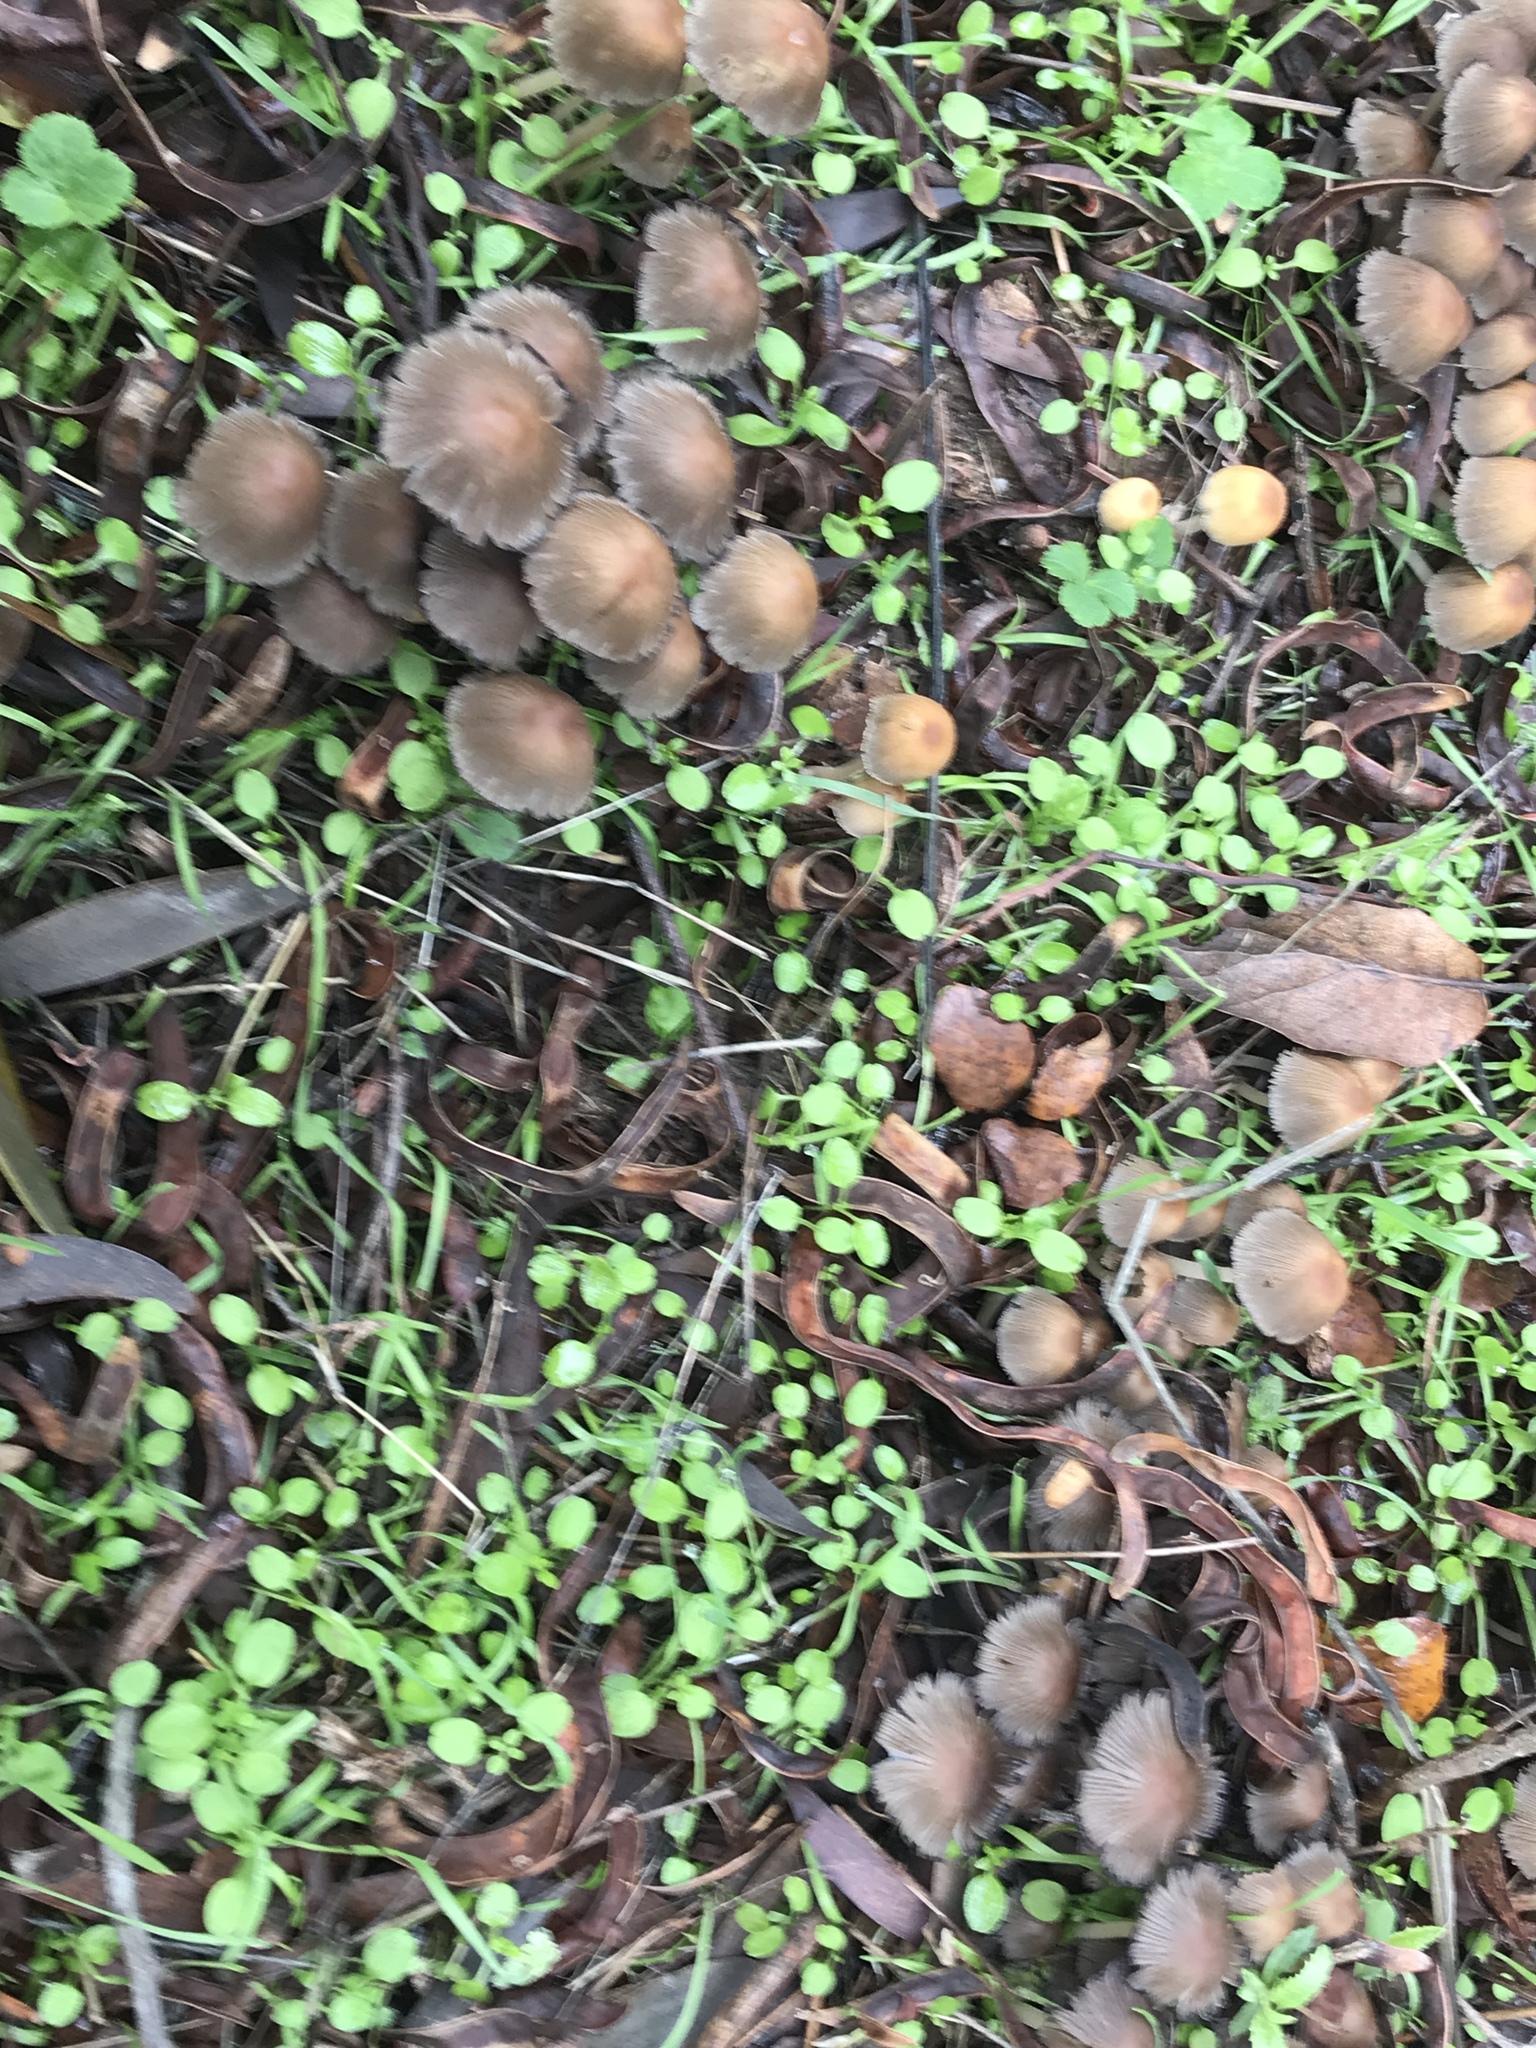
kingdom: Fungi
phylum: Basidiomycota
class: Agaricomycetes
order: Agaricales
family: Psathyrellaceae
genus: Coprinellus
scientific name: Coprinellus micaceus
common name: Glistening ink-cap
